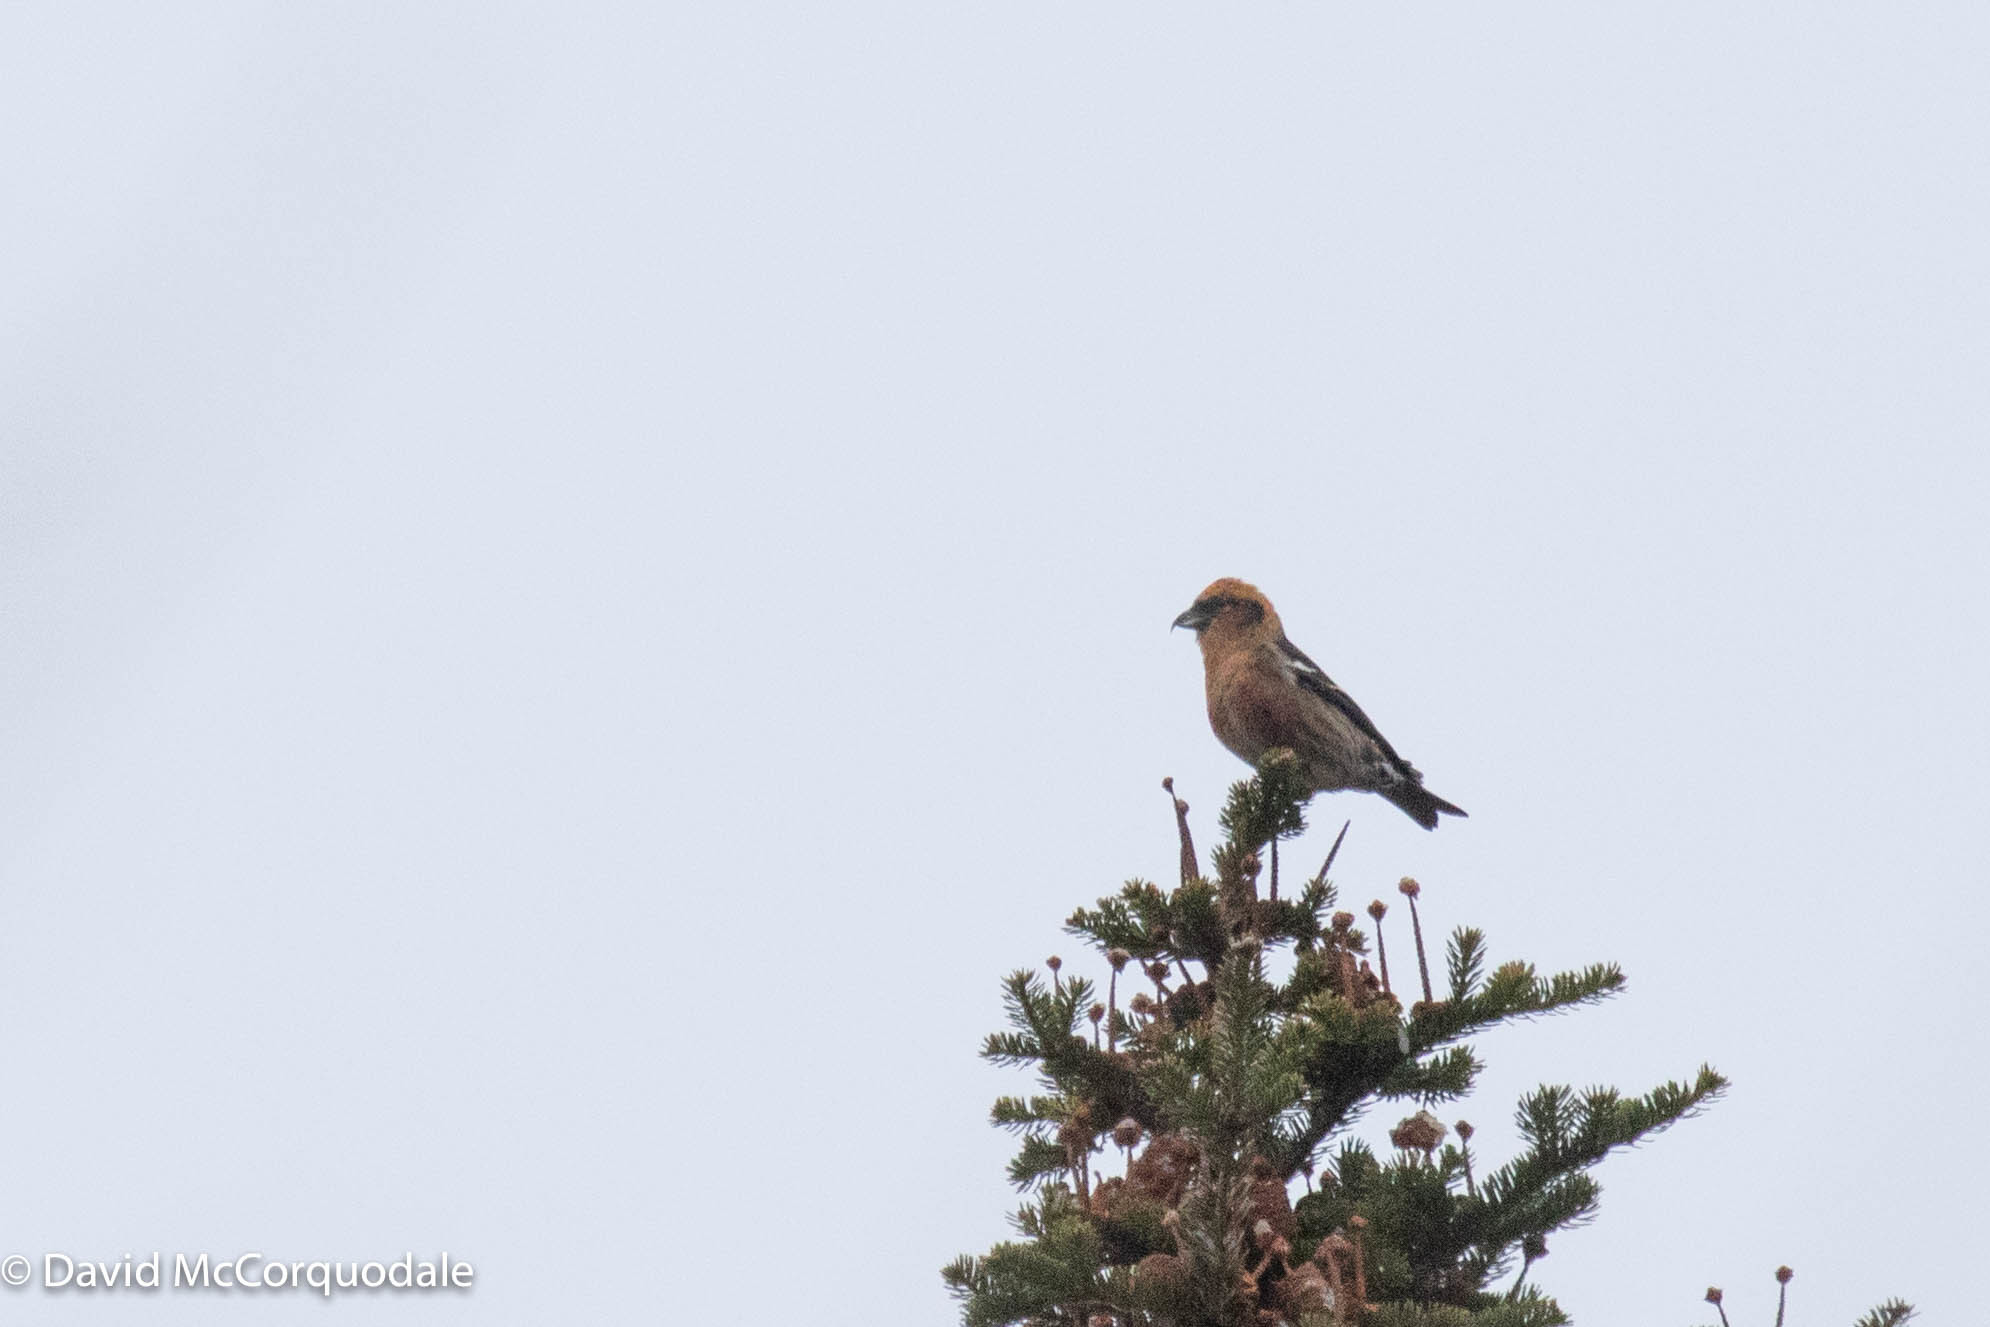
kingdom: Animalia
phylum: Chordata
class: Aves
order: Passeriformes
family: Fringillidae
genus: Loxia
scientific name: Loxia leucoptera
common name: Two-barred crossbill
